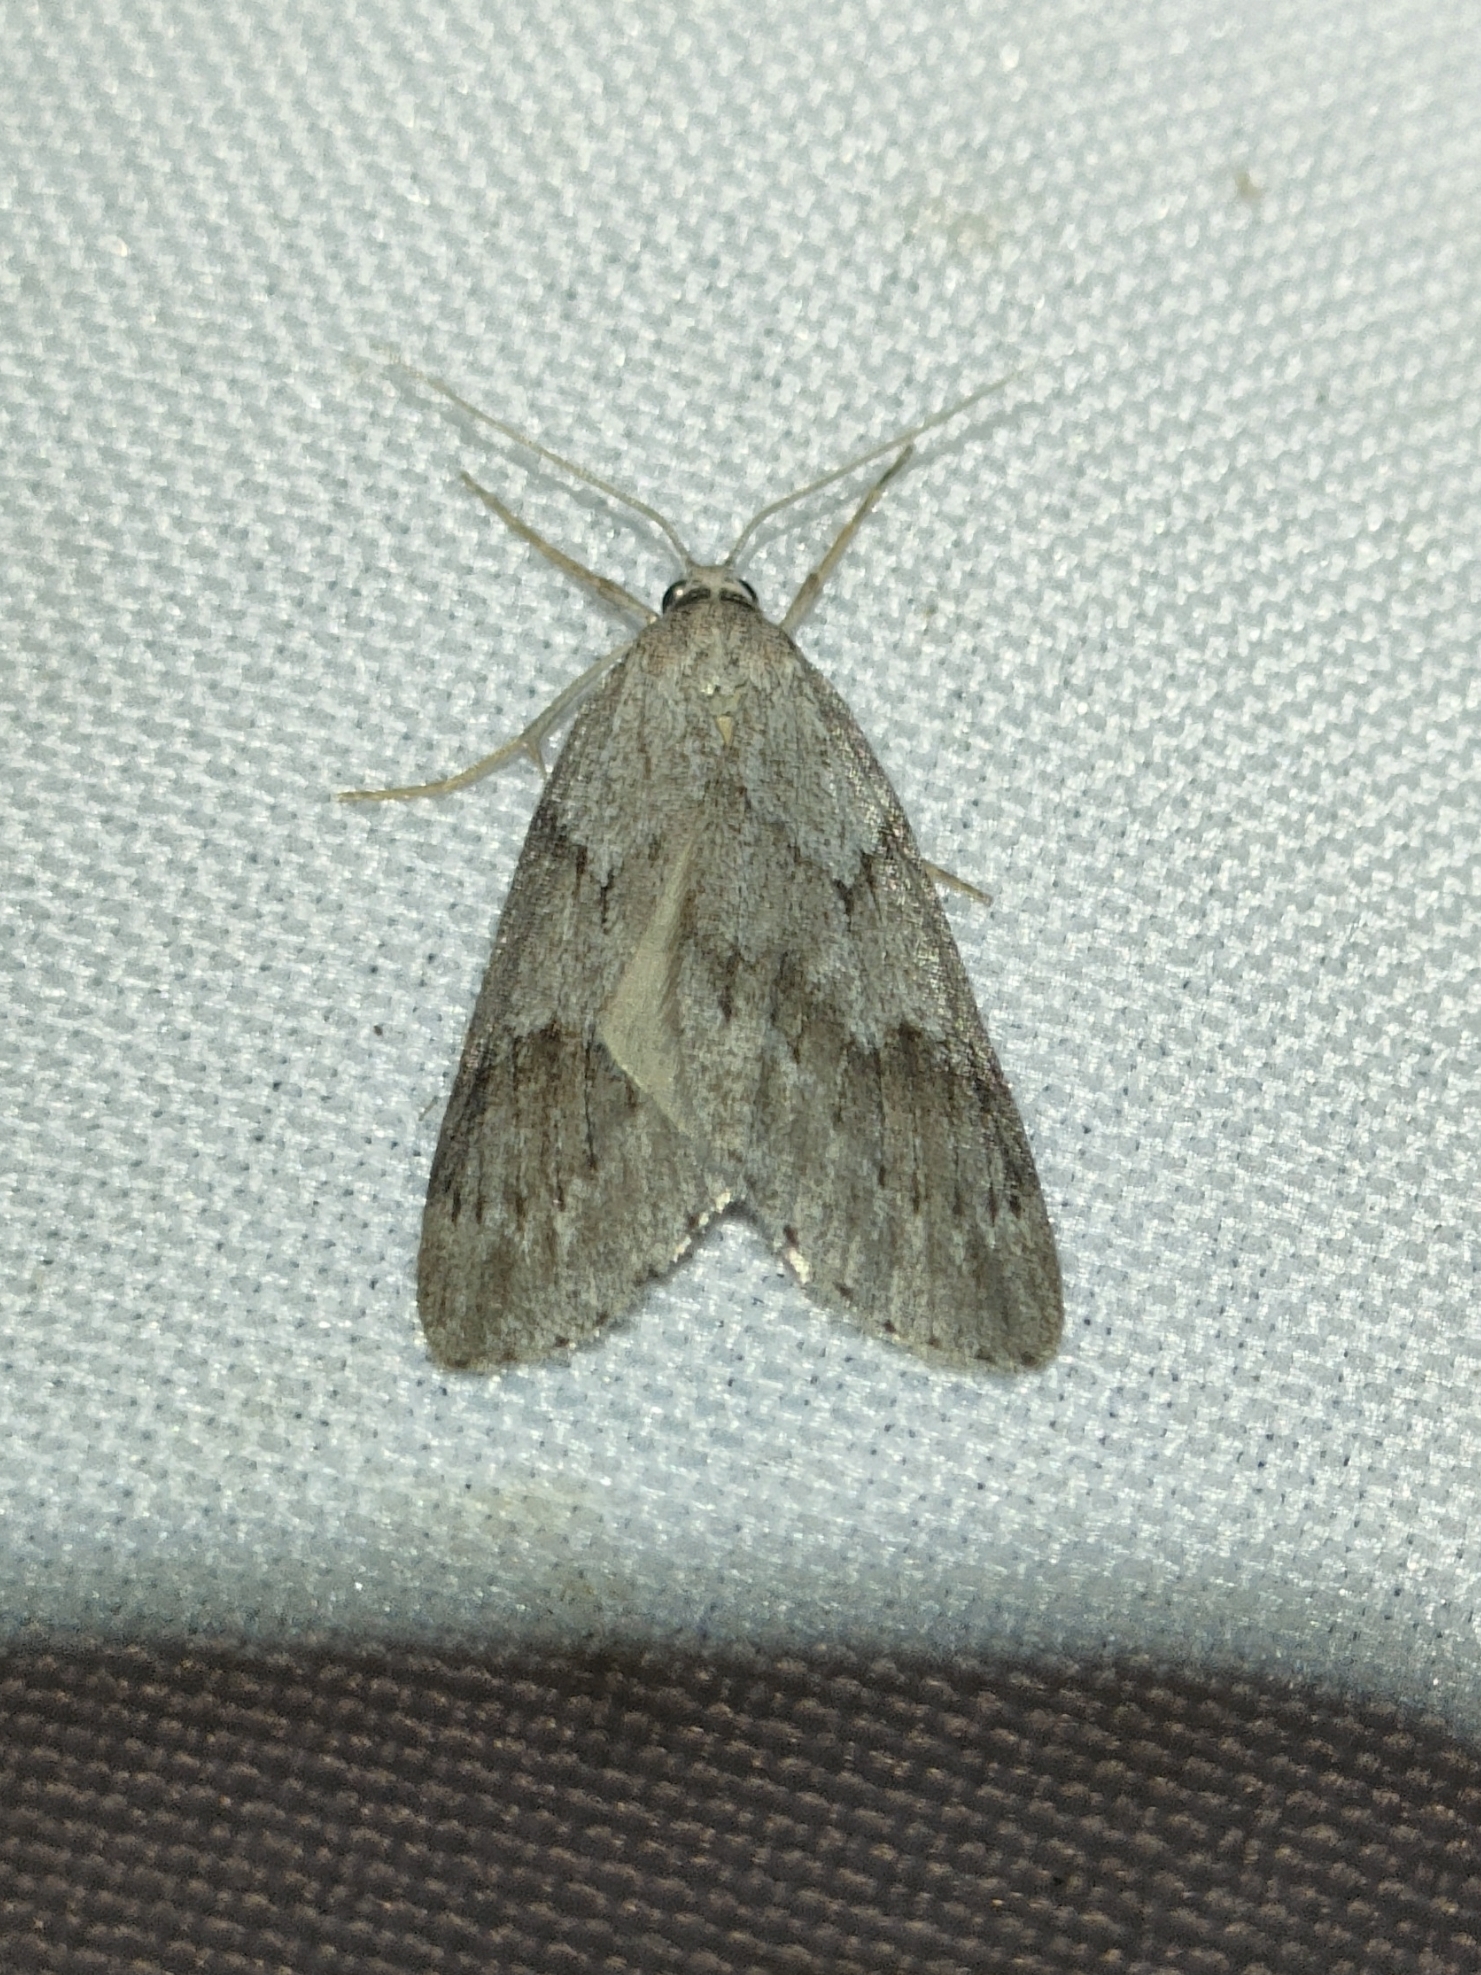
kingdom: Animalia
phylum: Arthropoda
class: Insecta
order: Lepidoptera
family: Geometridae
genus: Pachycnemia
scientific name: Pachycnemia hippocastanaria
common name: Horse chestnut
